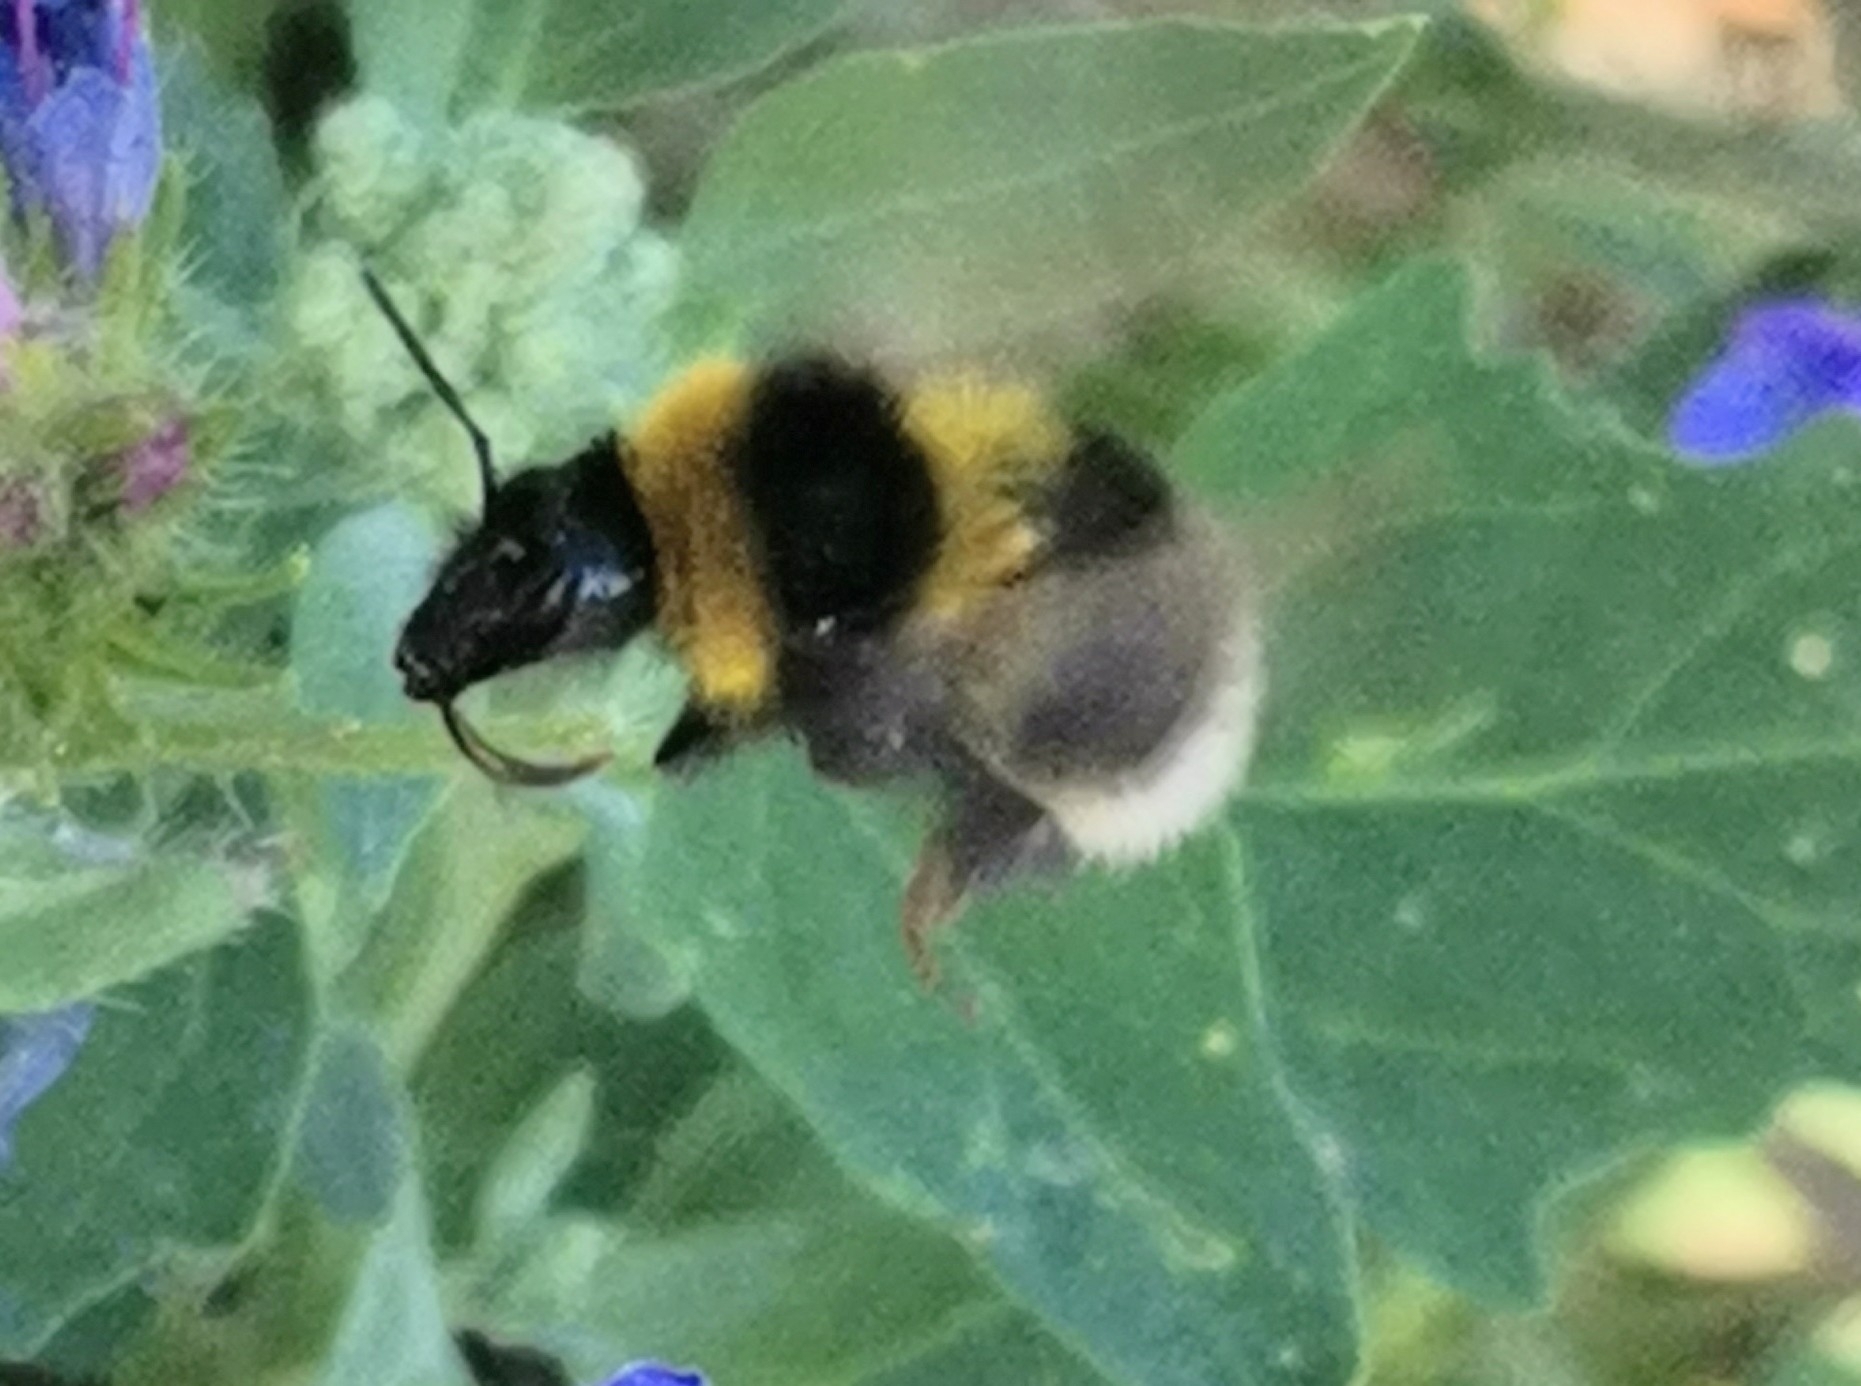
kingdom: Animalia
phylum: Arthropoda
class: Insecta
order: Hymenoptera
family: Apidae
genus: Bombus
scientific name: Bombus hortorum
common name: Garden bumblebee
